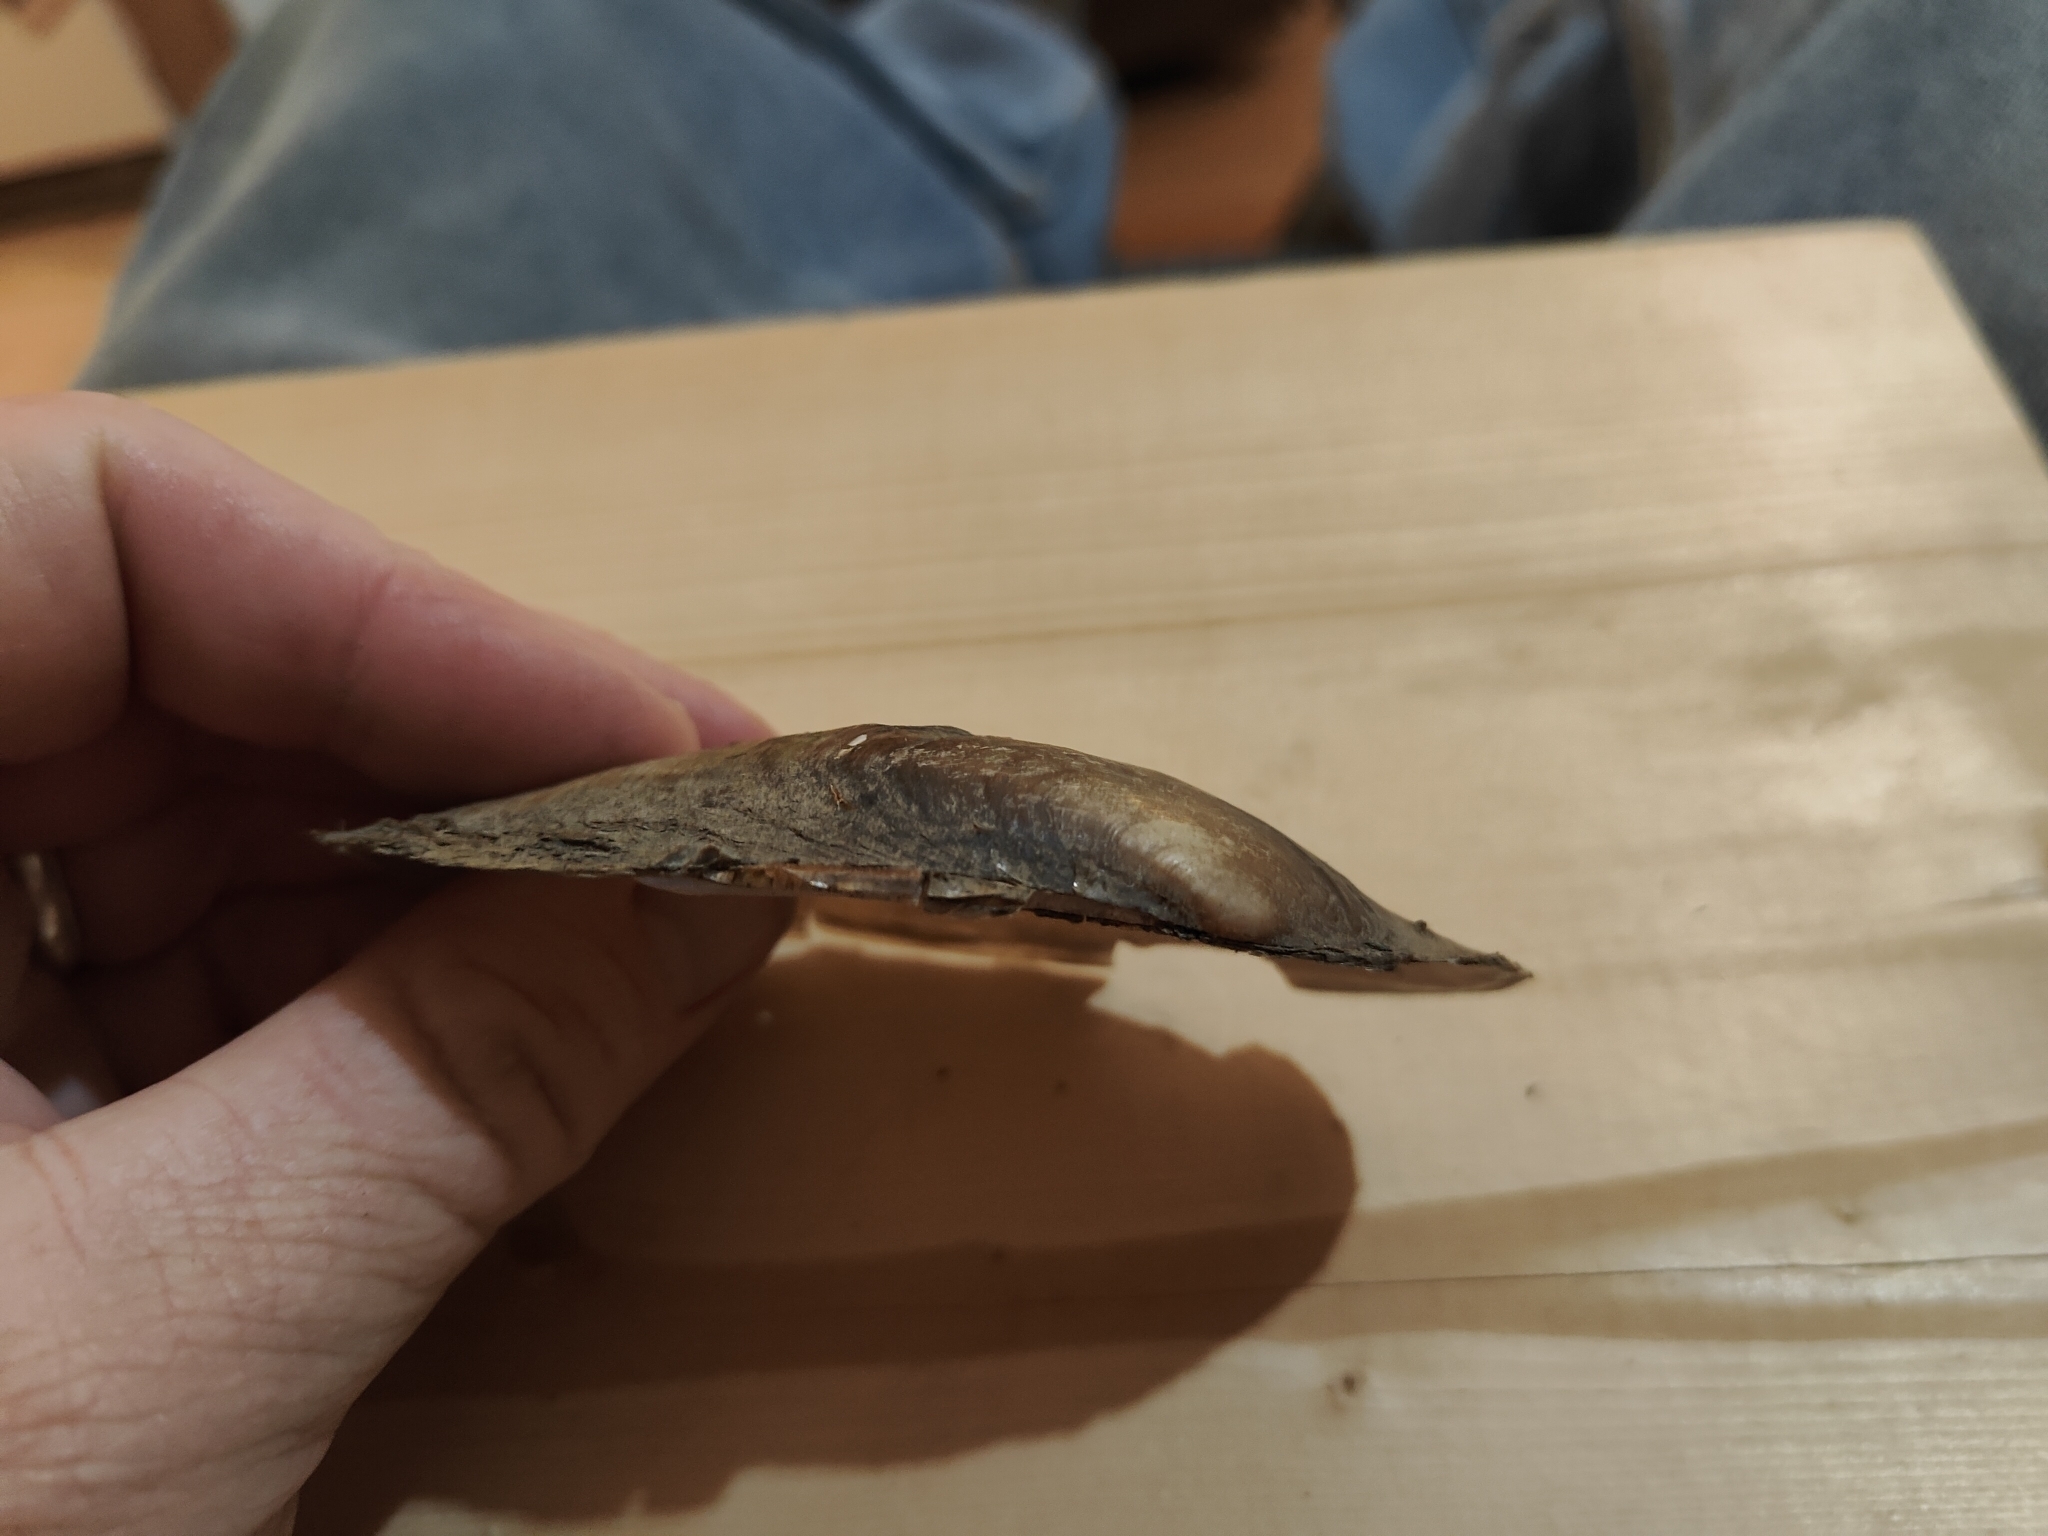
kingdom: Animalia
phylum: Mollusca
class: Bivalvia
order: Unionida
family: Unionidae
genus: Potamilus
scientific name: Potamilus fragilis
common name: Fragile papershell
